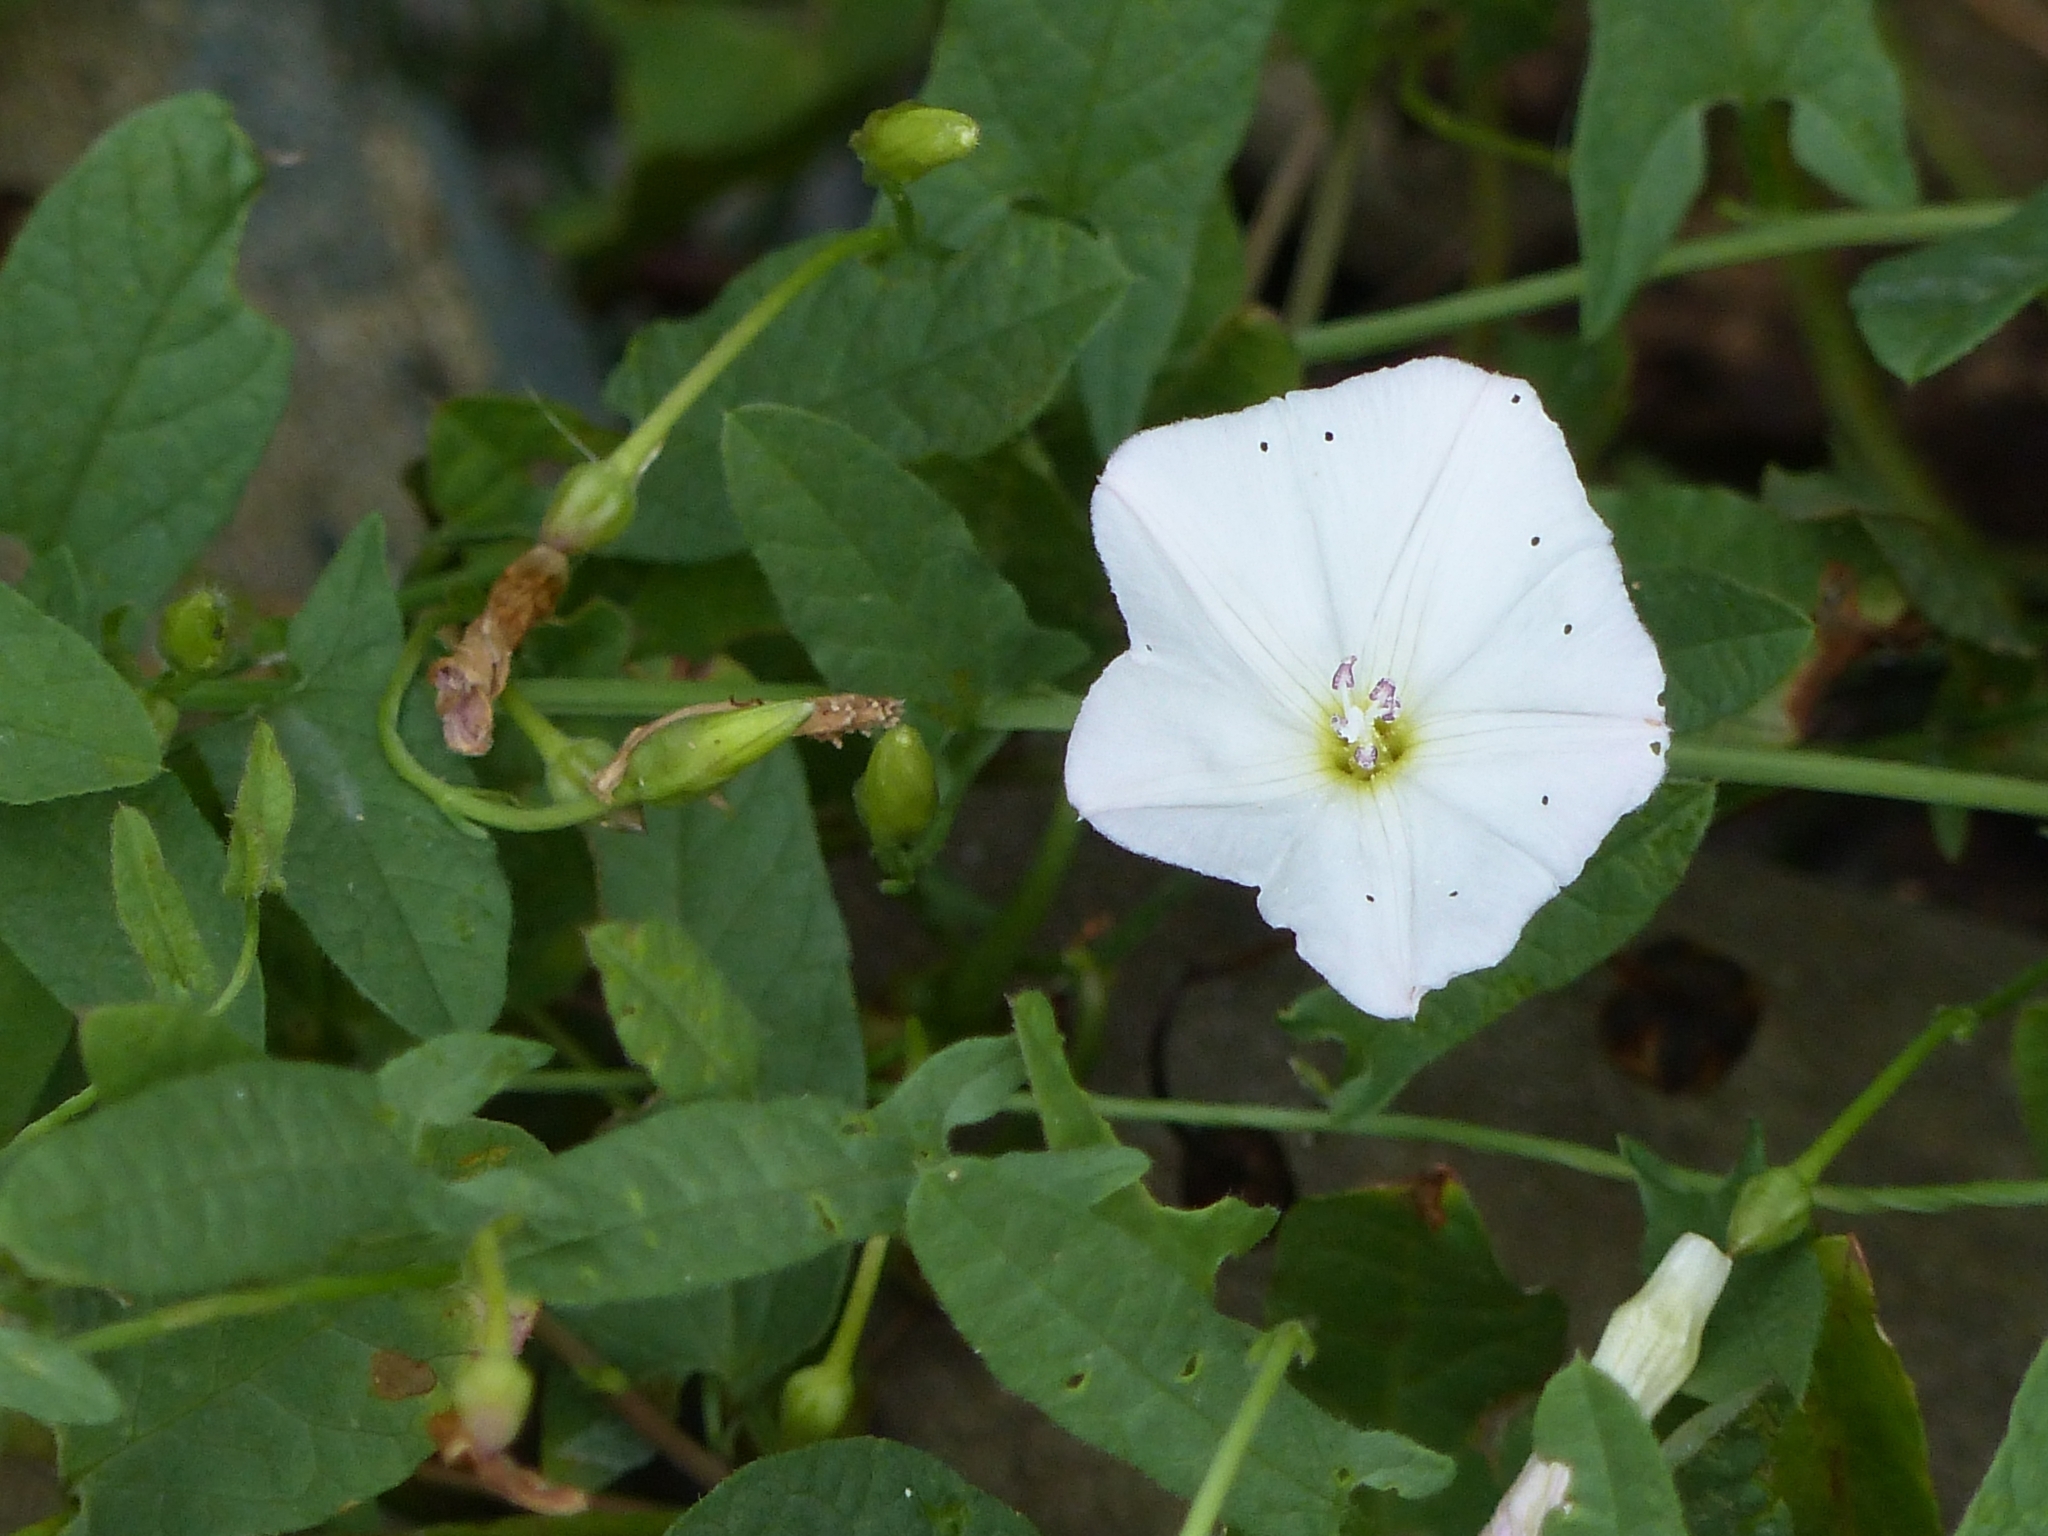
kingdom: Plantae
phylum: Tracheophyta
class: Magnoliopsida
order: Solanales
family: Convolvulaceae
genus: Convolvulus
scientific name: Convolvulus arvensis
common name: Field bindweed
